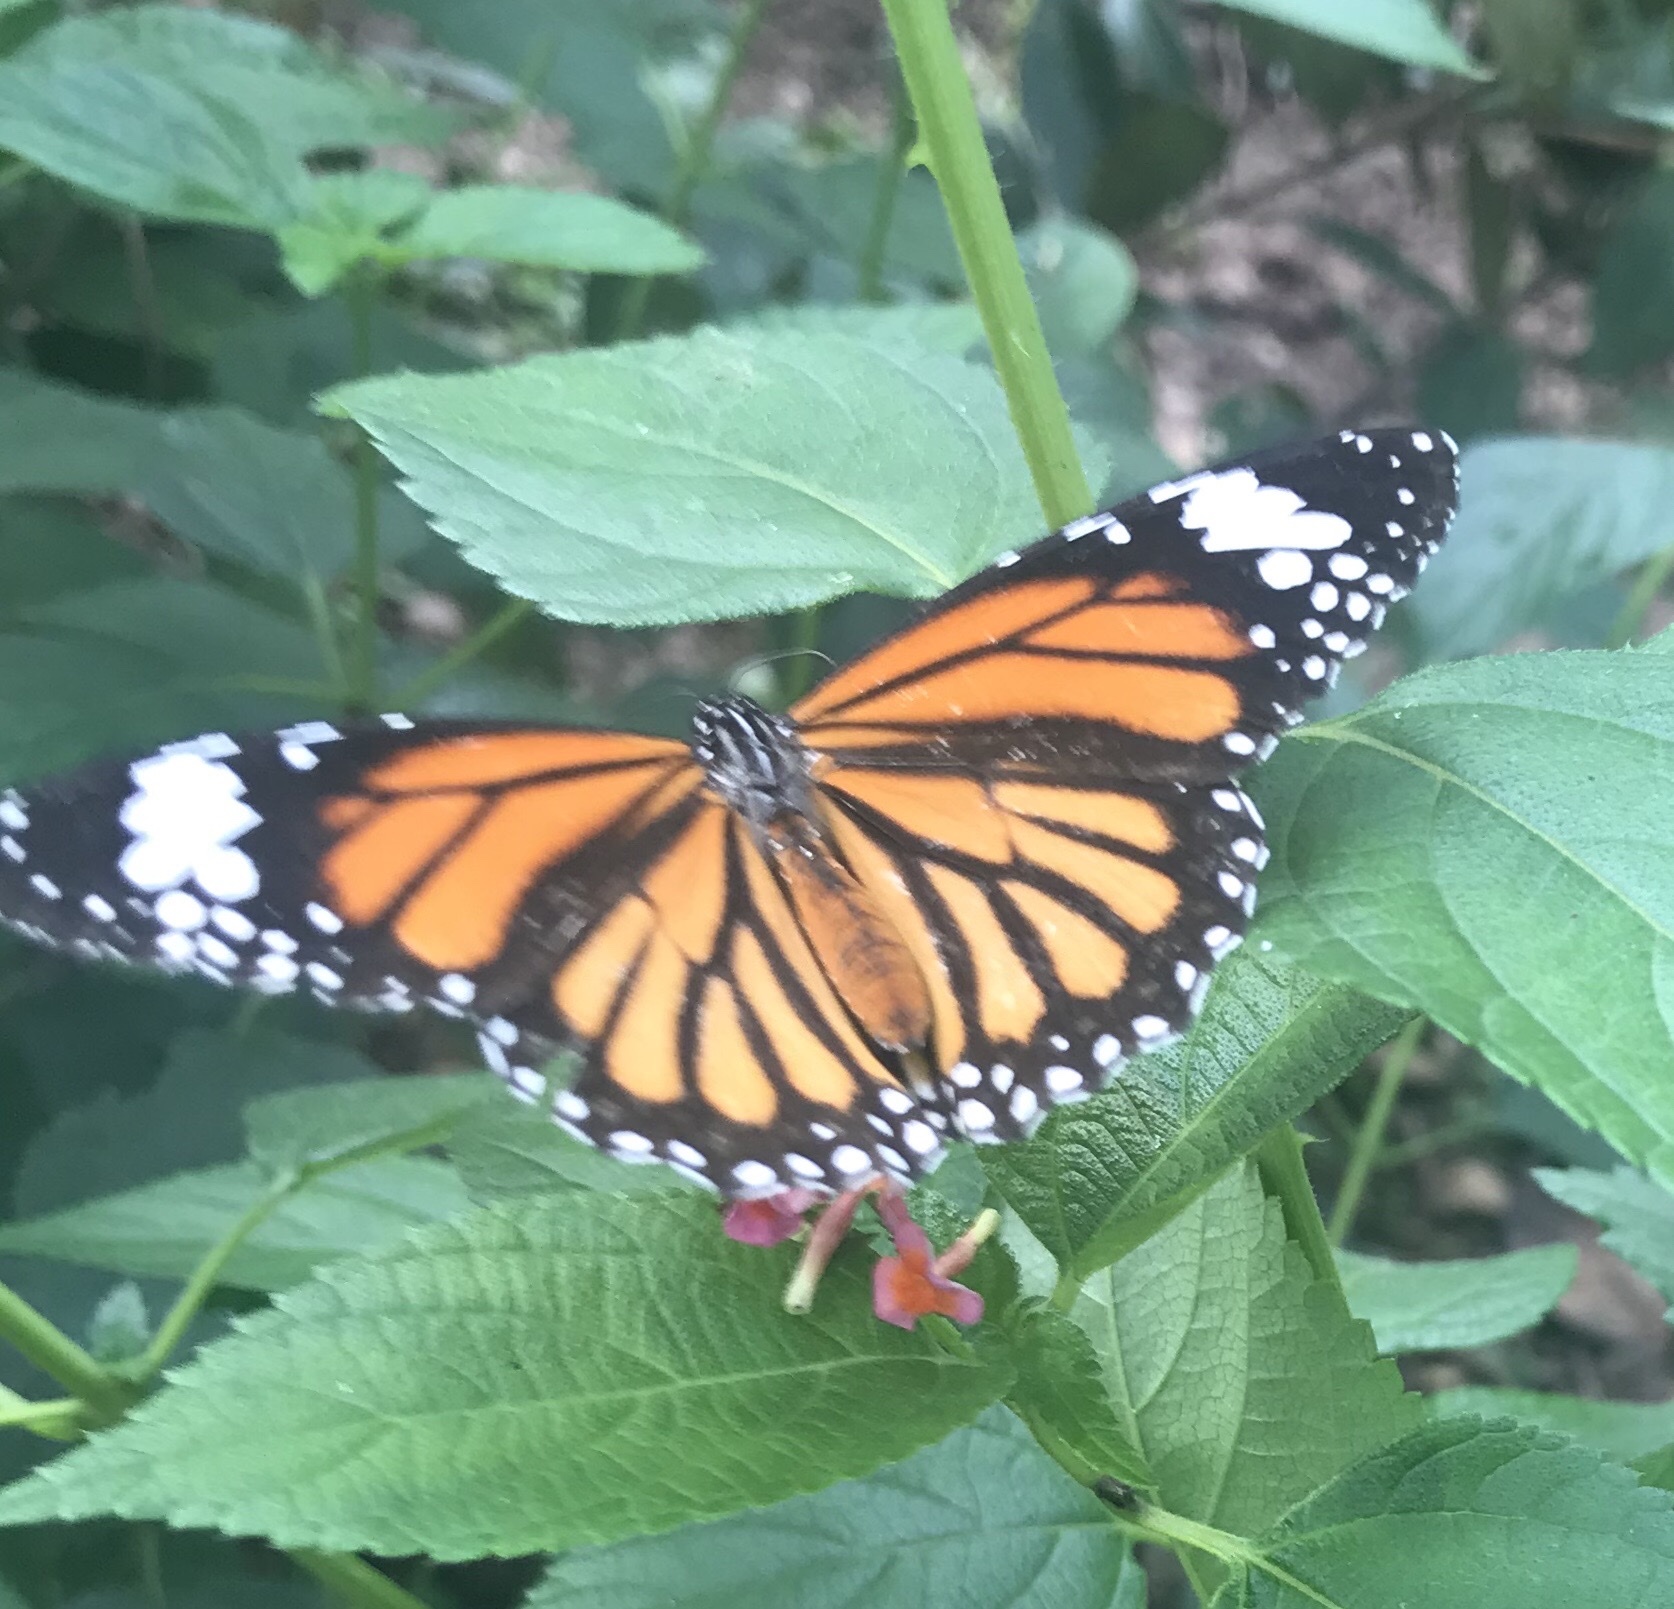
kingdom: Animalia
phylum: Arthropoda
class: Insecta
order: Lepidoptera
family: Nymphalidae
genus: Danaus
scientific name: Danaus genutia
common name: Common tiger butterfly
